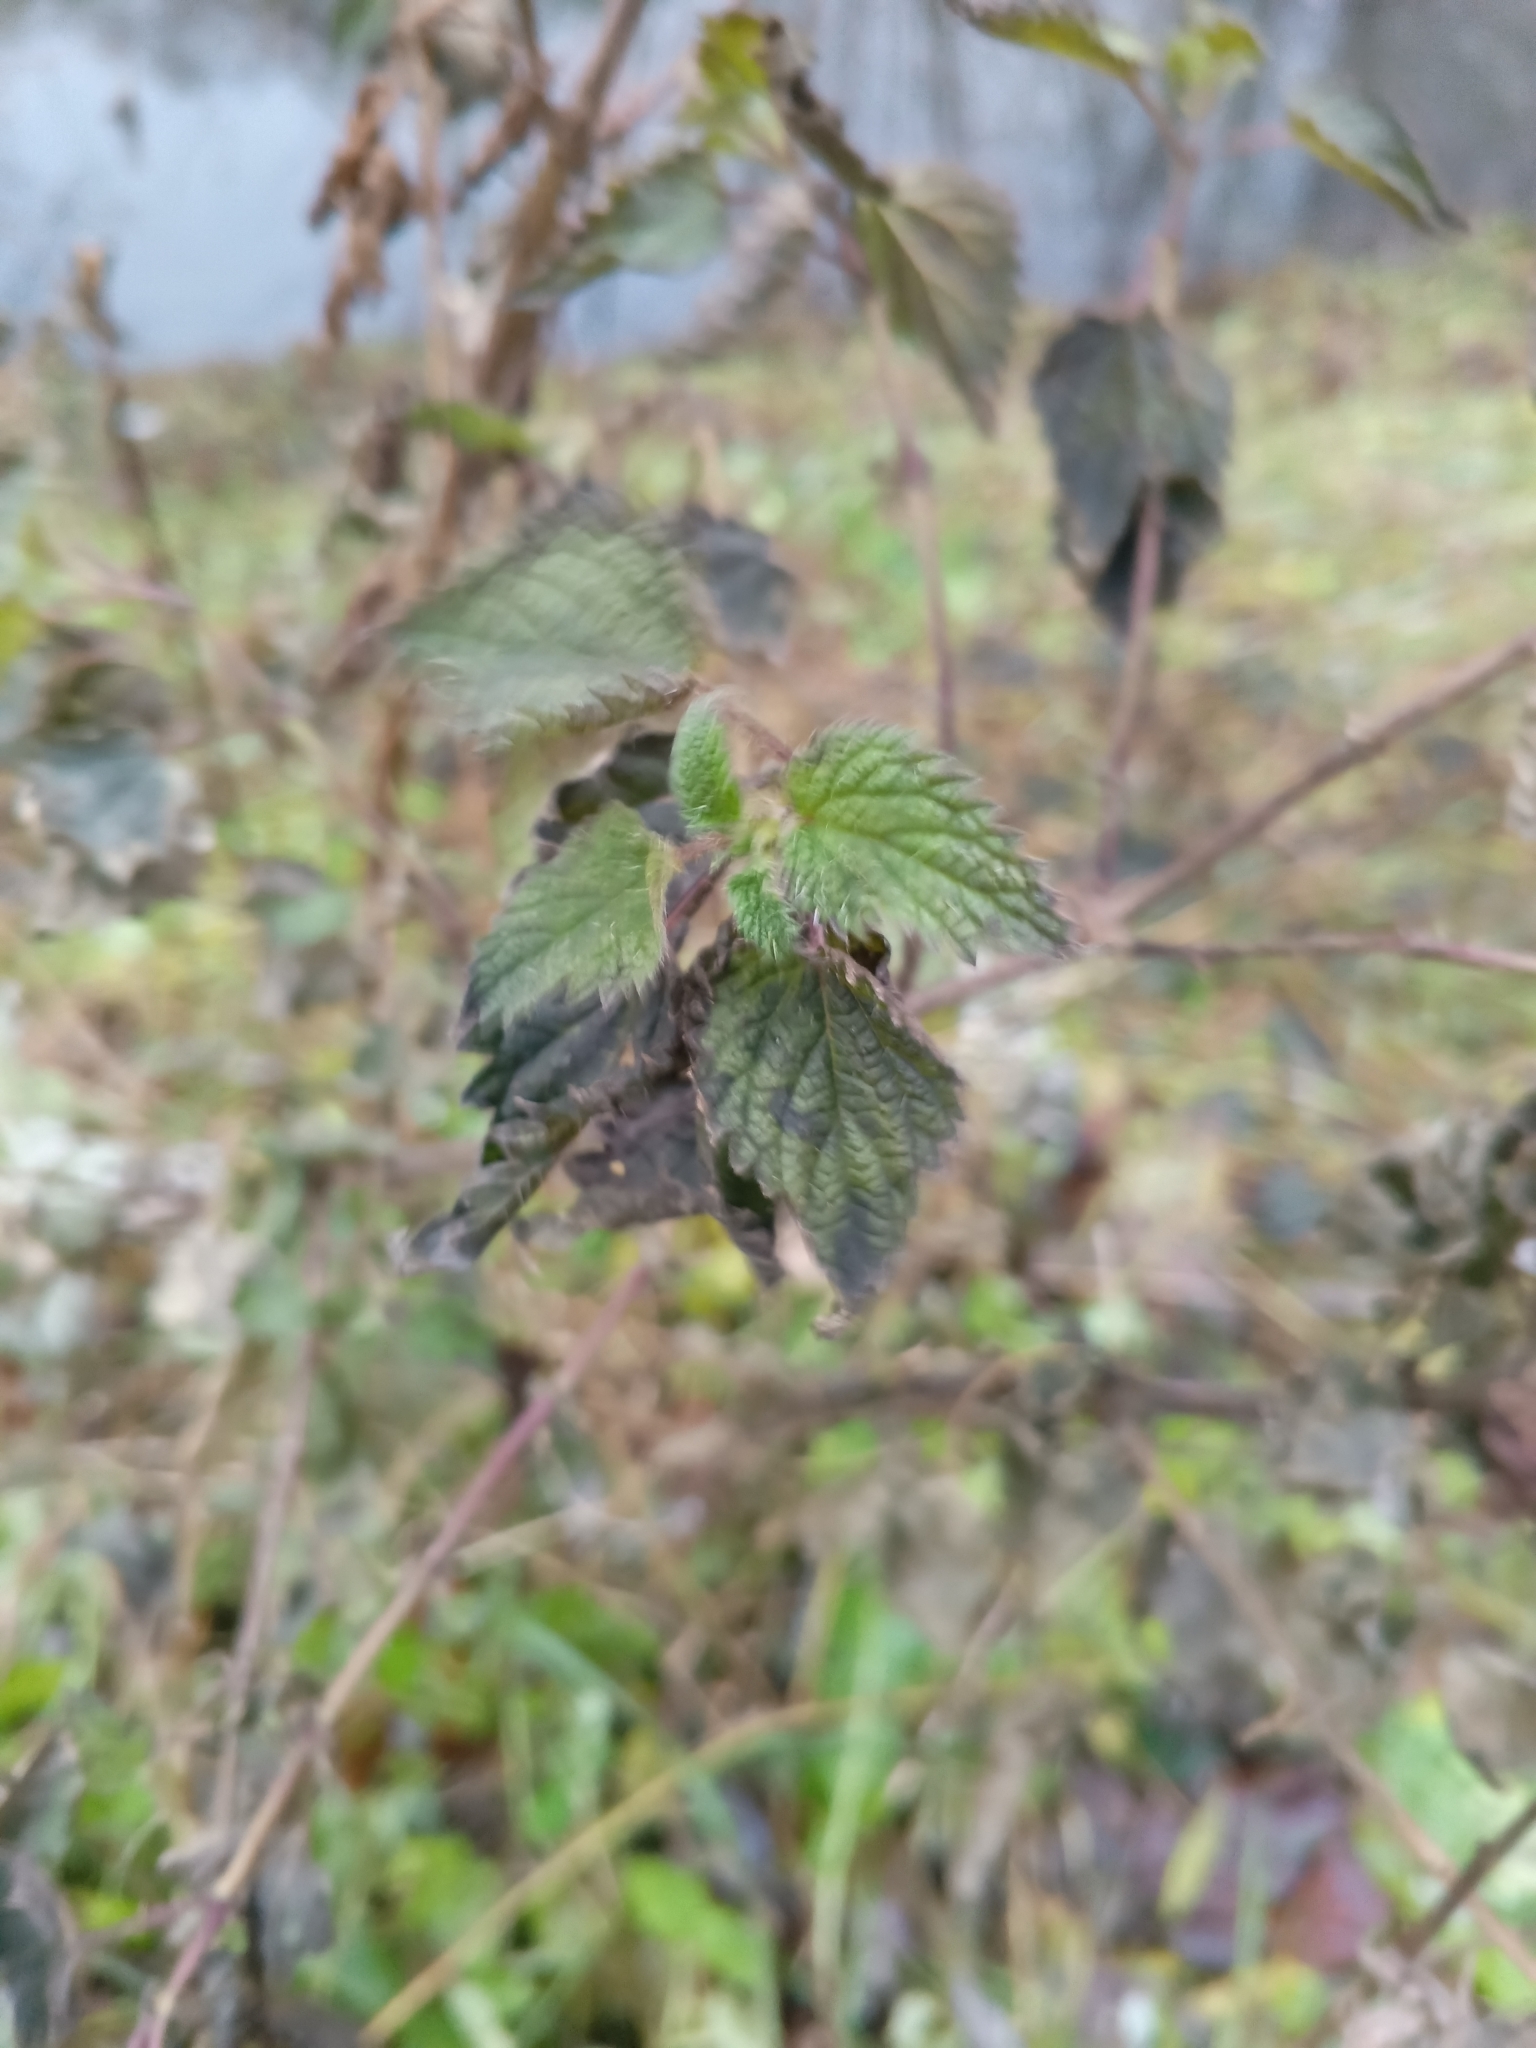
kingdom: Plantae
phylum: Tracheophyta
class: Magnoliopsida
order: Rosales
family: Urticaceae
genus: Urtica
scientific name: Urtica dioica
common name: Common nettle
